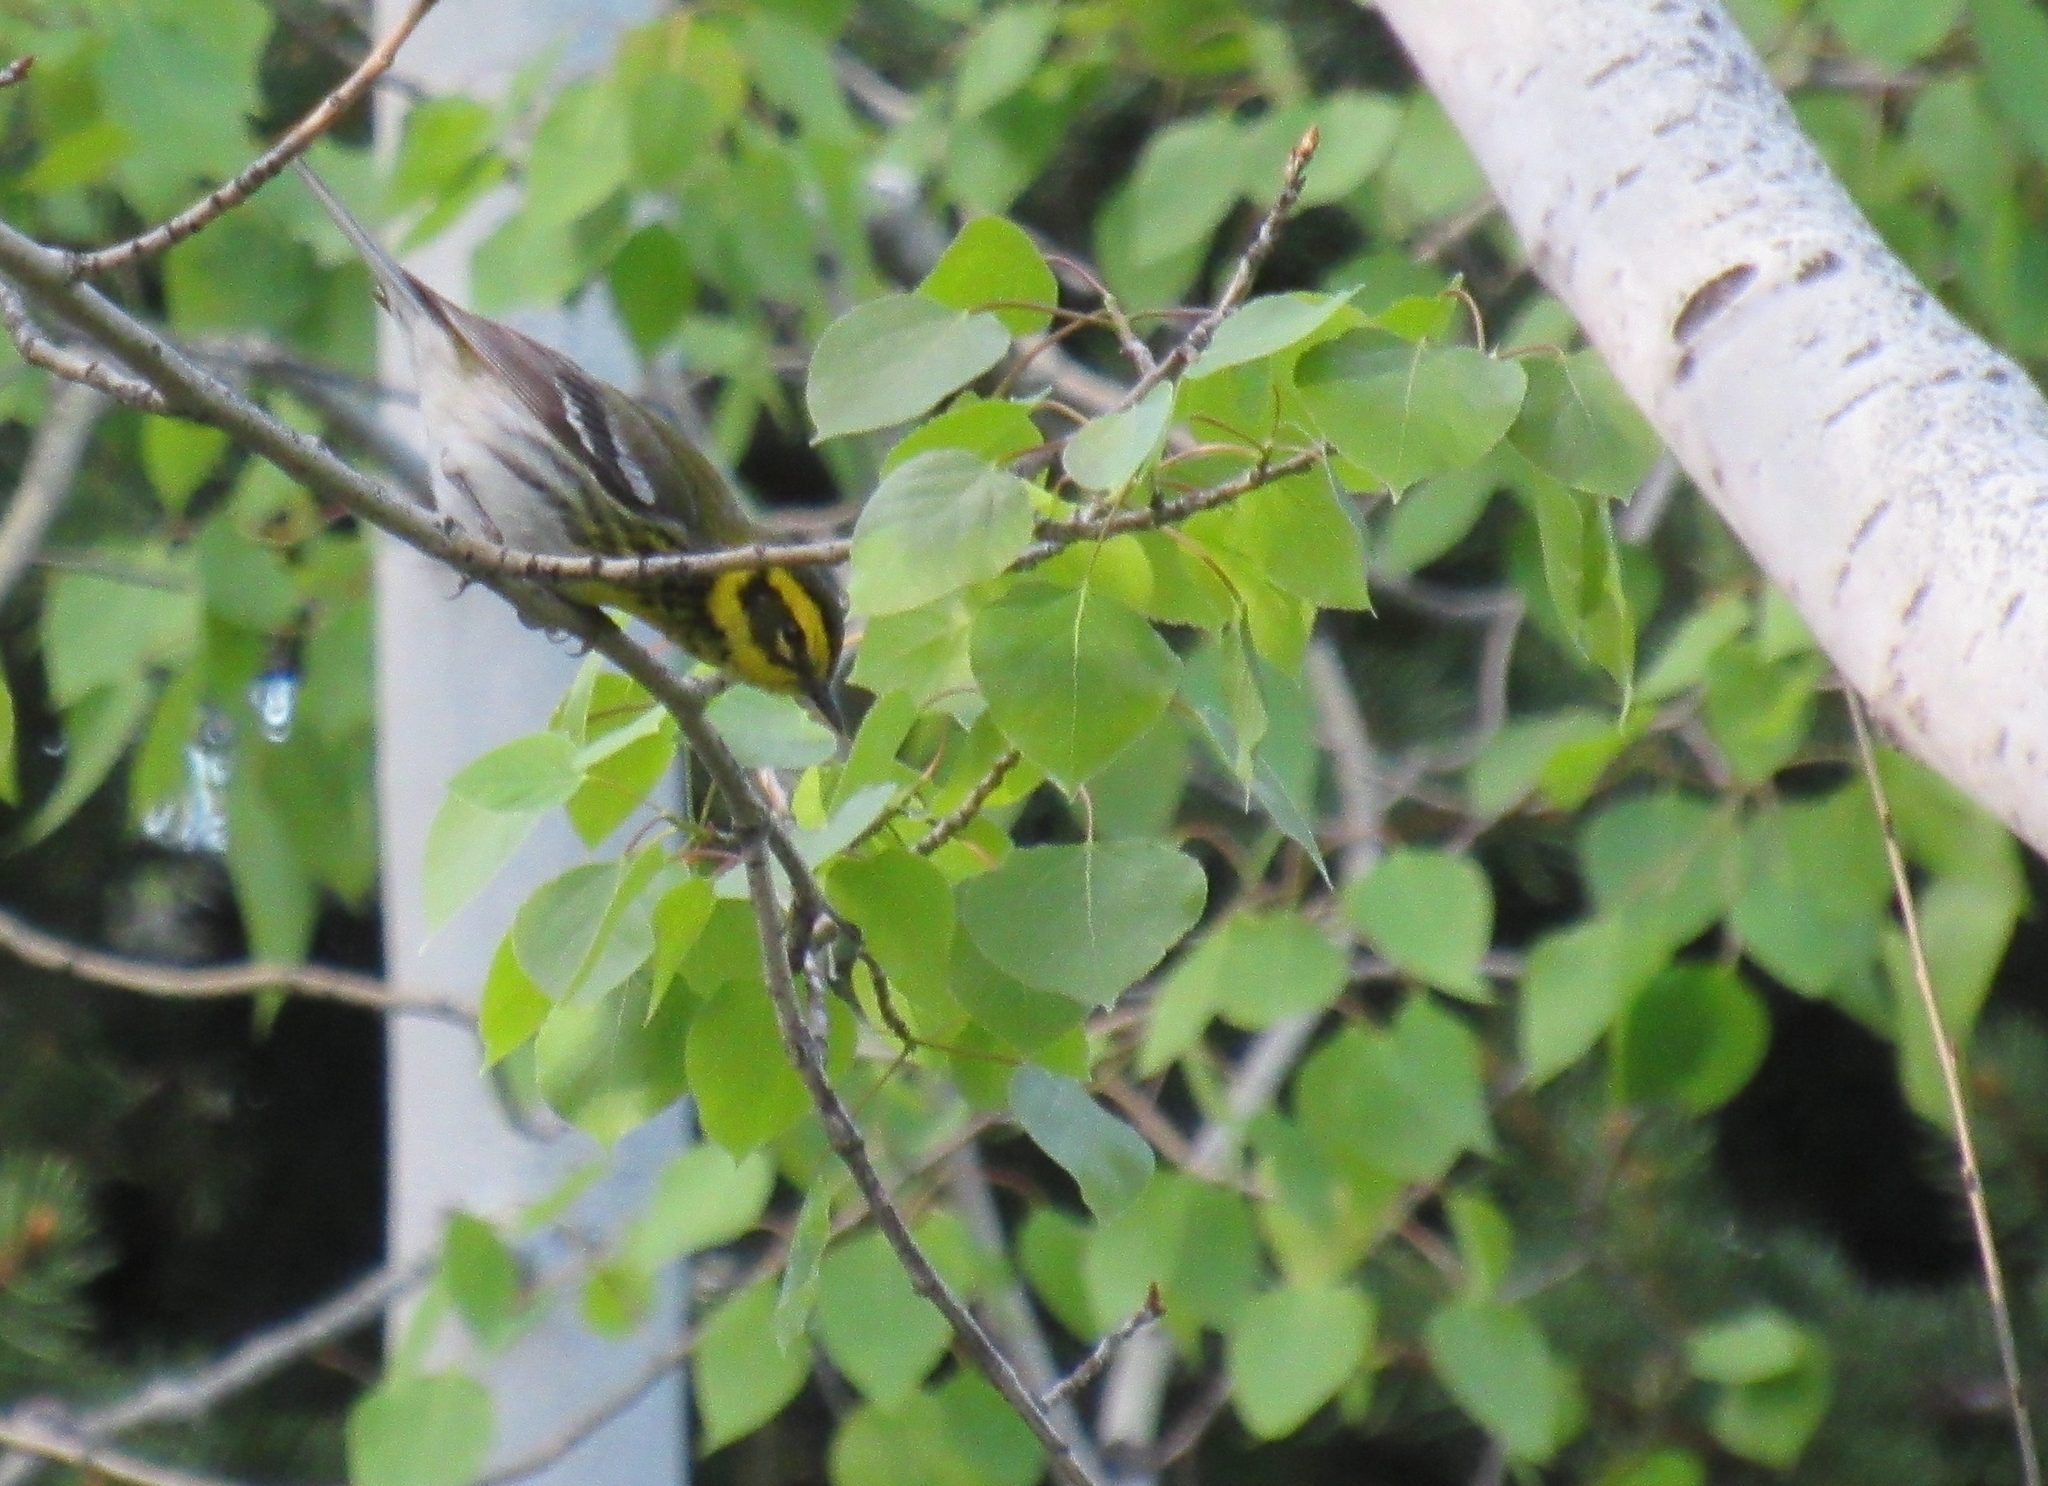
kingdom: Animalia
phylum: Chordata
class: Aves
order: Passeriformes
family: Parulidae
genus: Setophaga
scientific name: Setophaga townsendi
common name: Townsend's warbler
